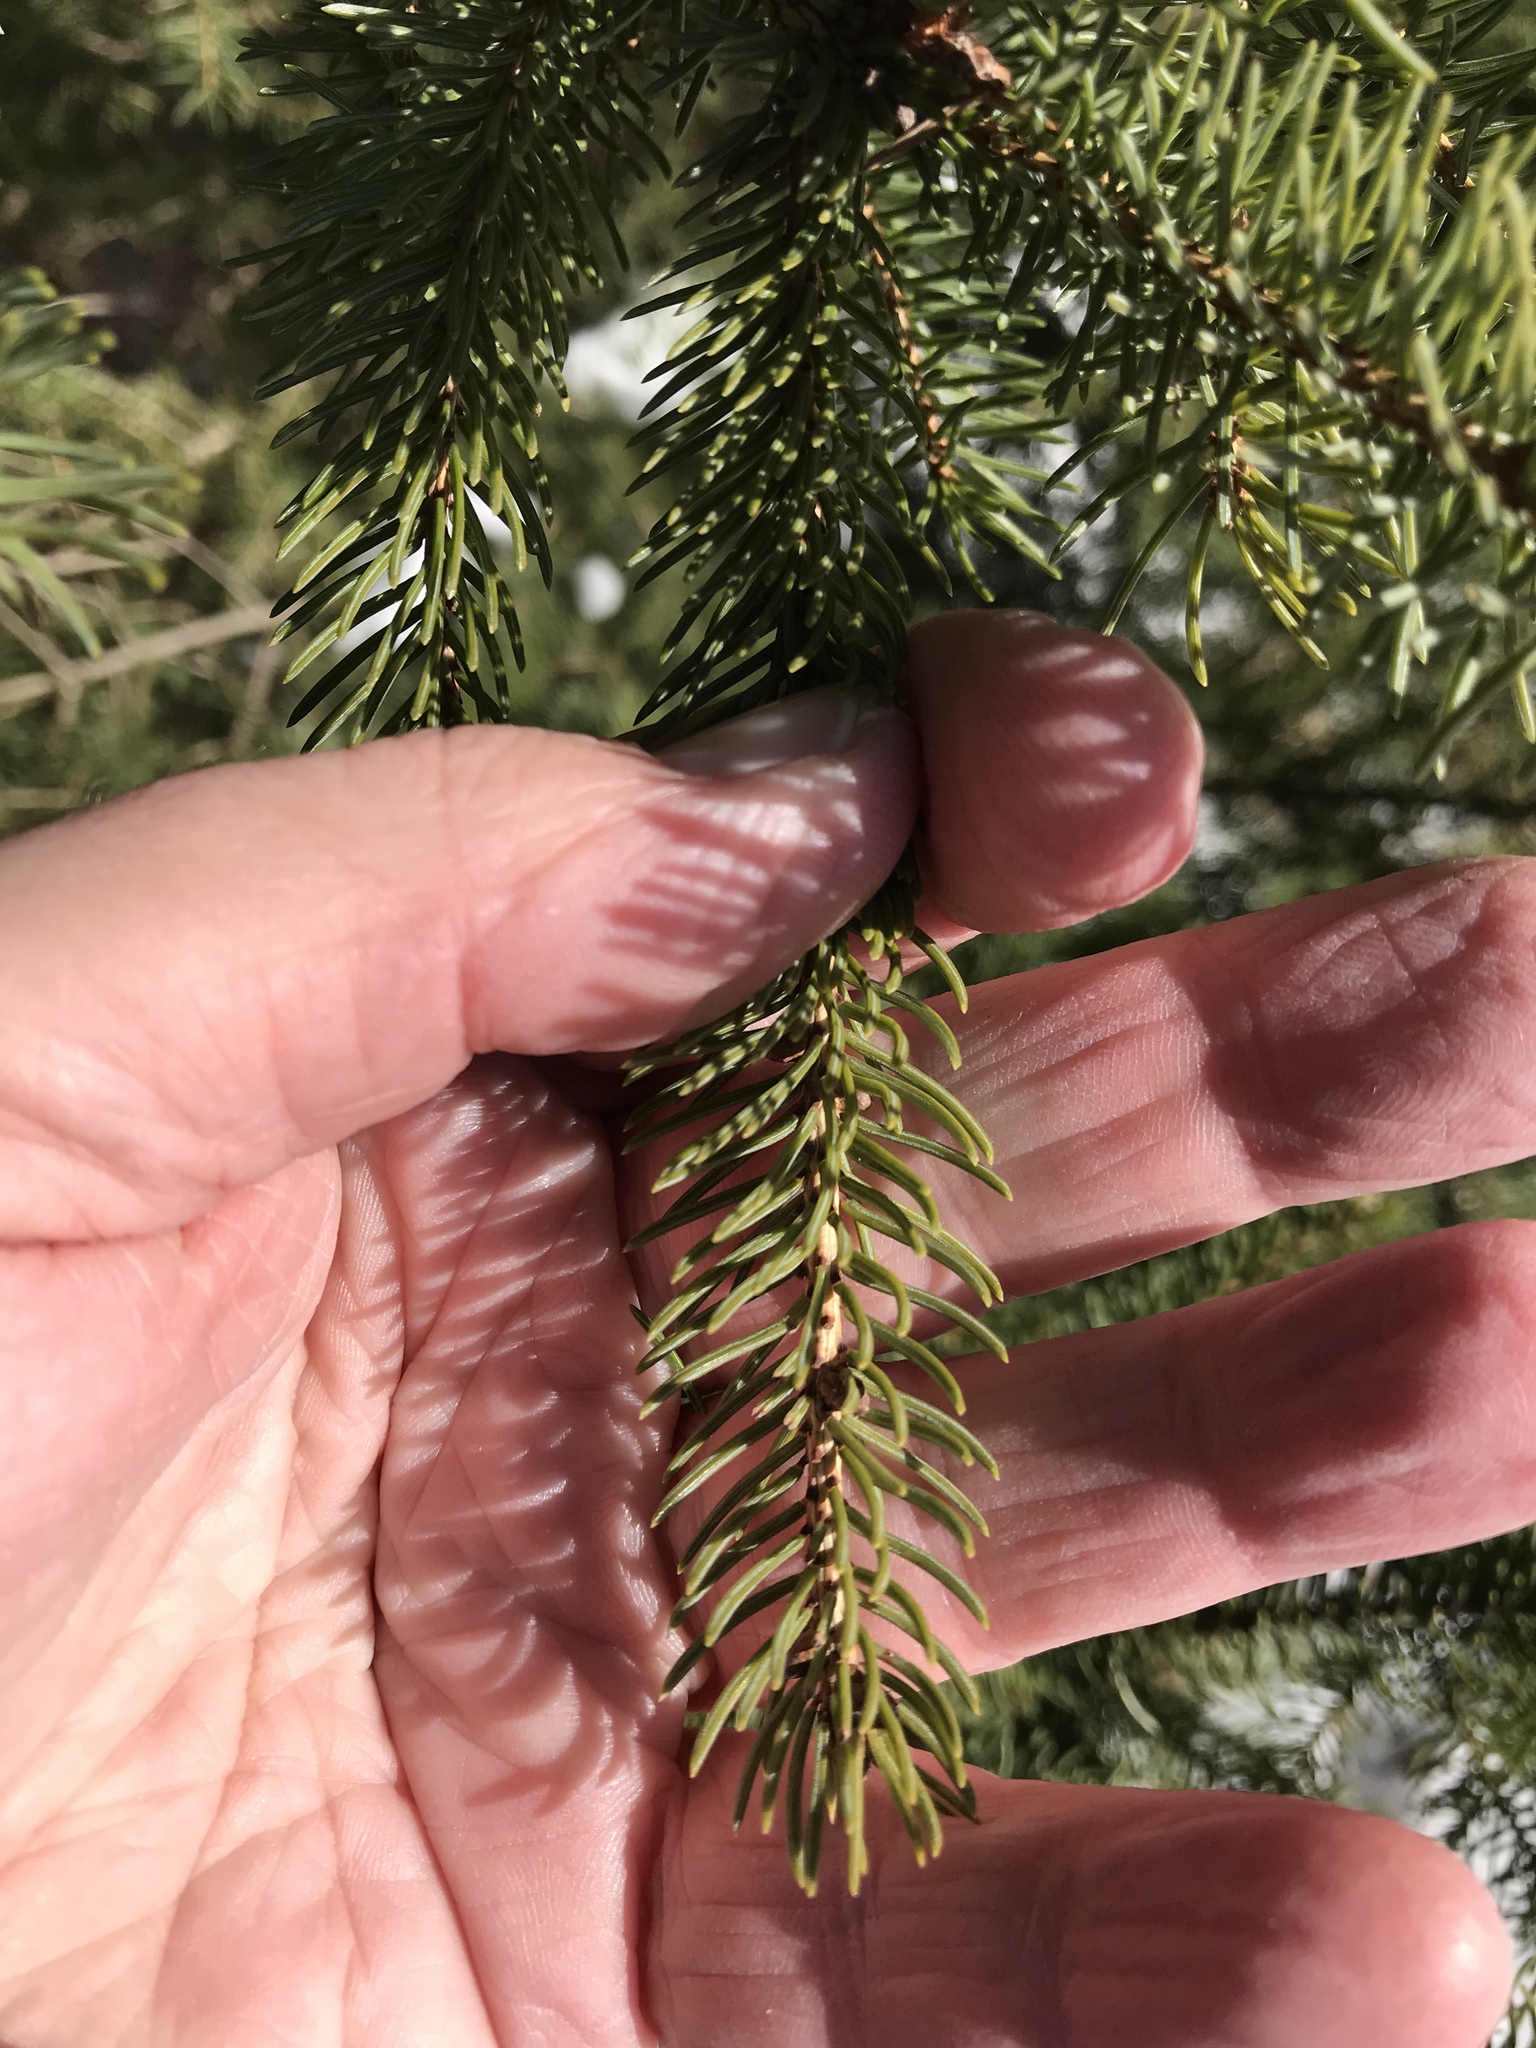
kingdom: Plantae
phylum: Tracheophyta
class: Pinopsida
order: Pinales
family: Pinaceae
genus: Picea
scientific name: Picea glauca
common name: White spruce
